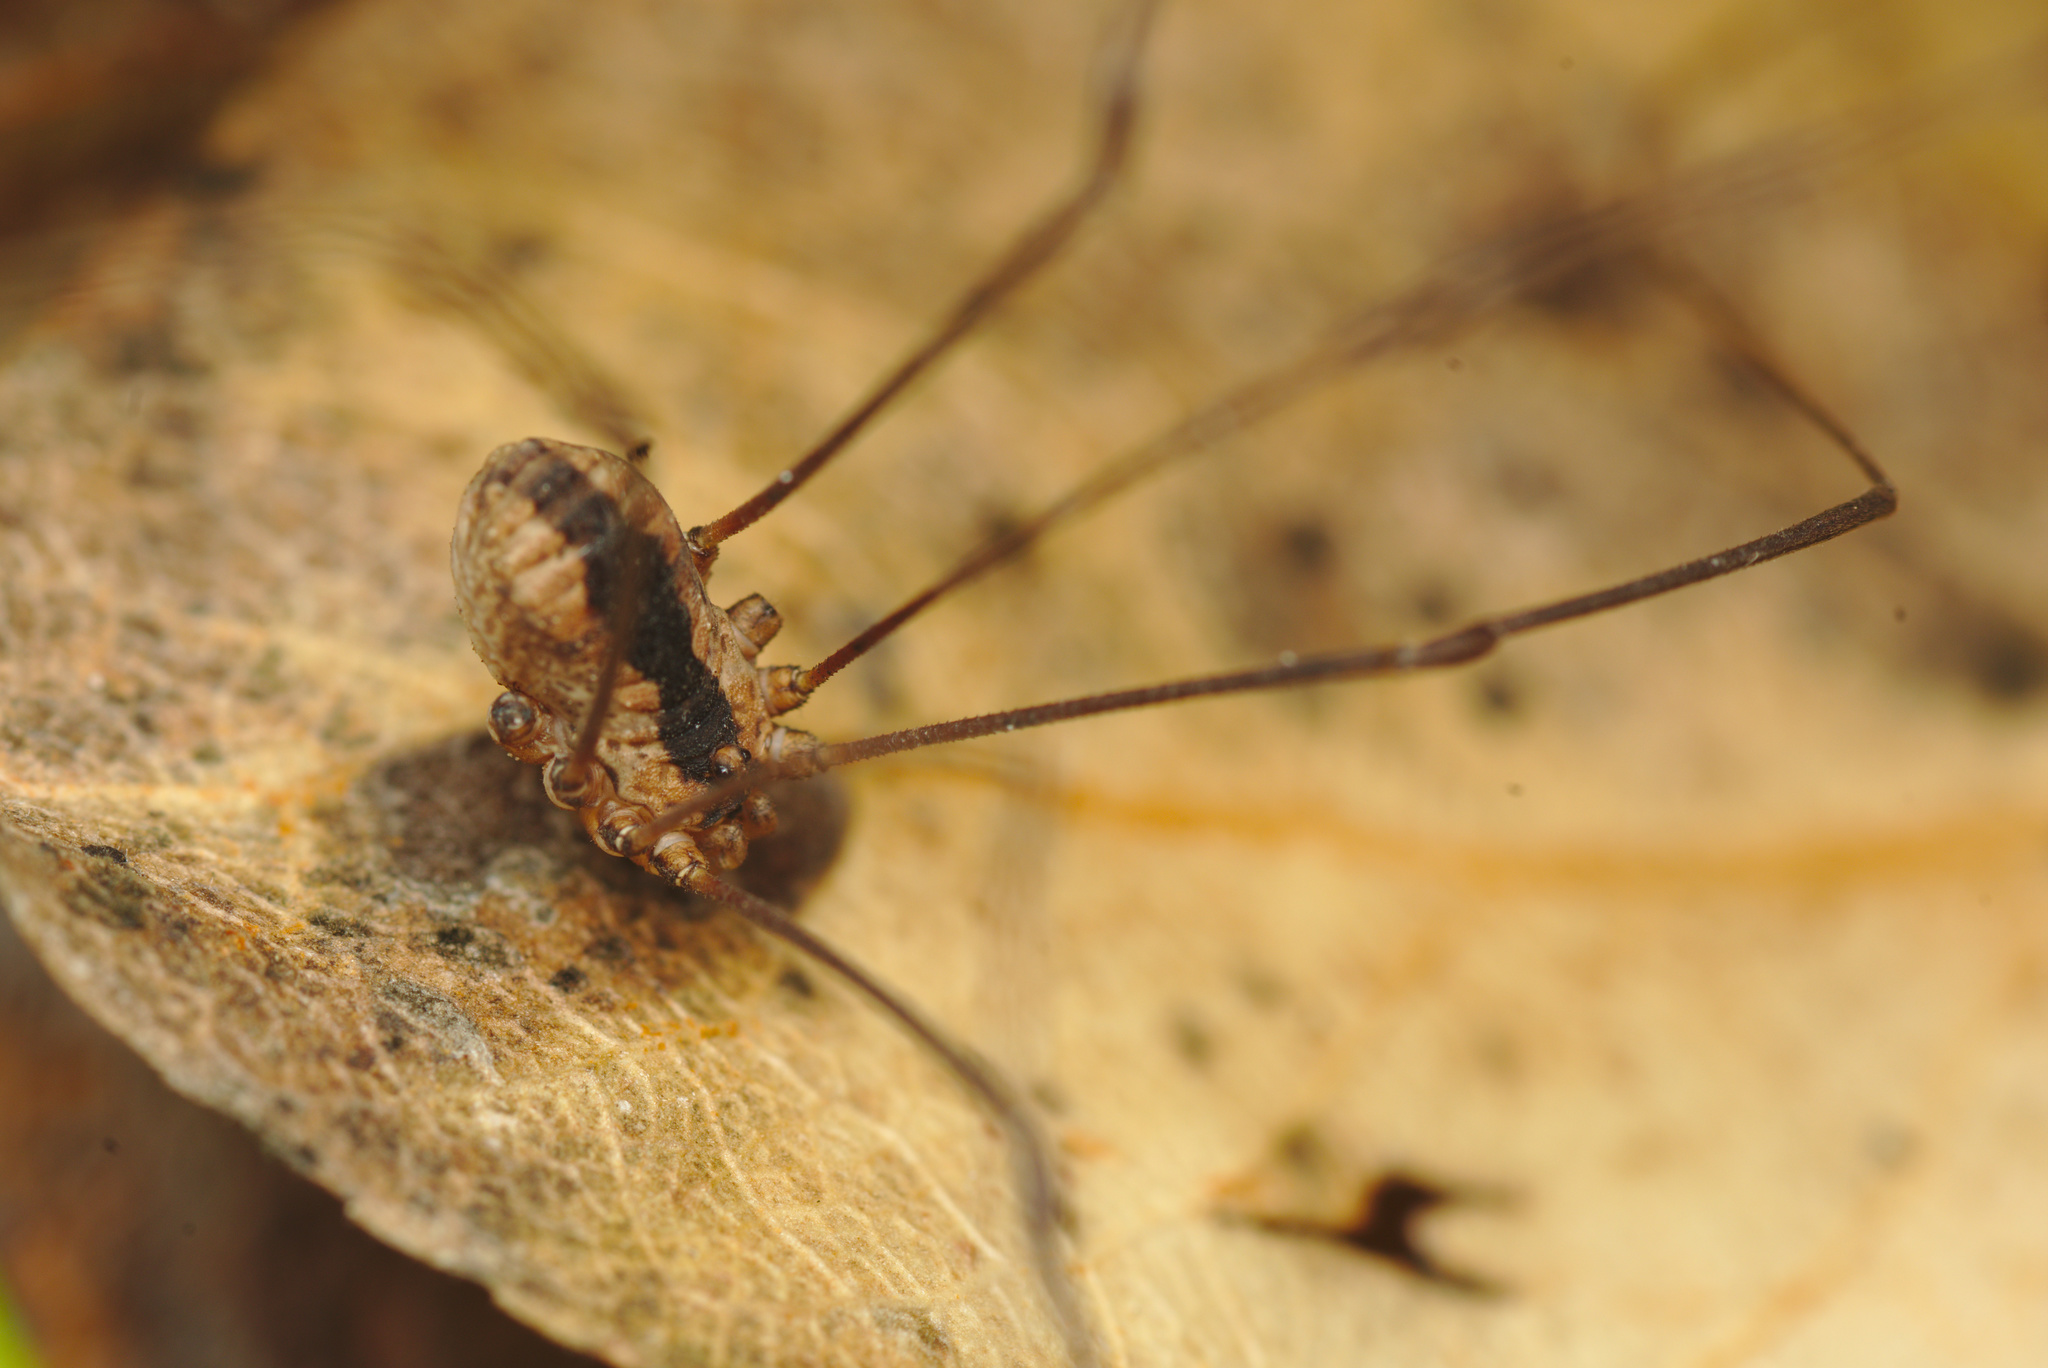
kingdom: Animalia
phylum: Arthropoda
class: Arachnida
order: Opiliones
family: Sclerosomatidae
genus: Leuronychus
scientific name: Leuronychus pacificus
